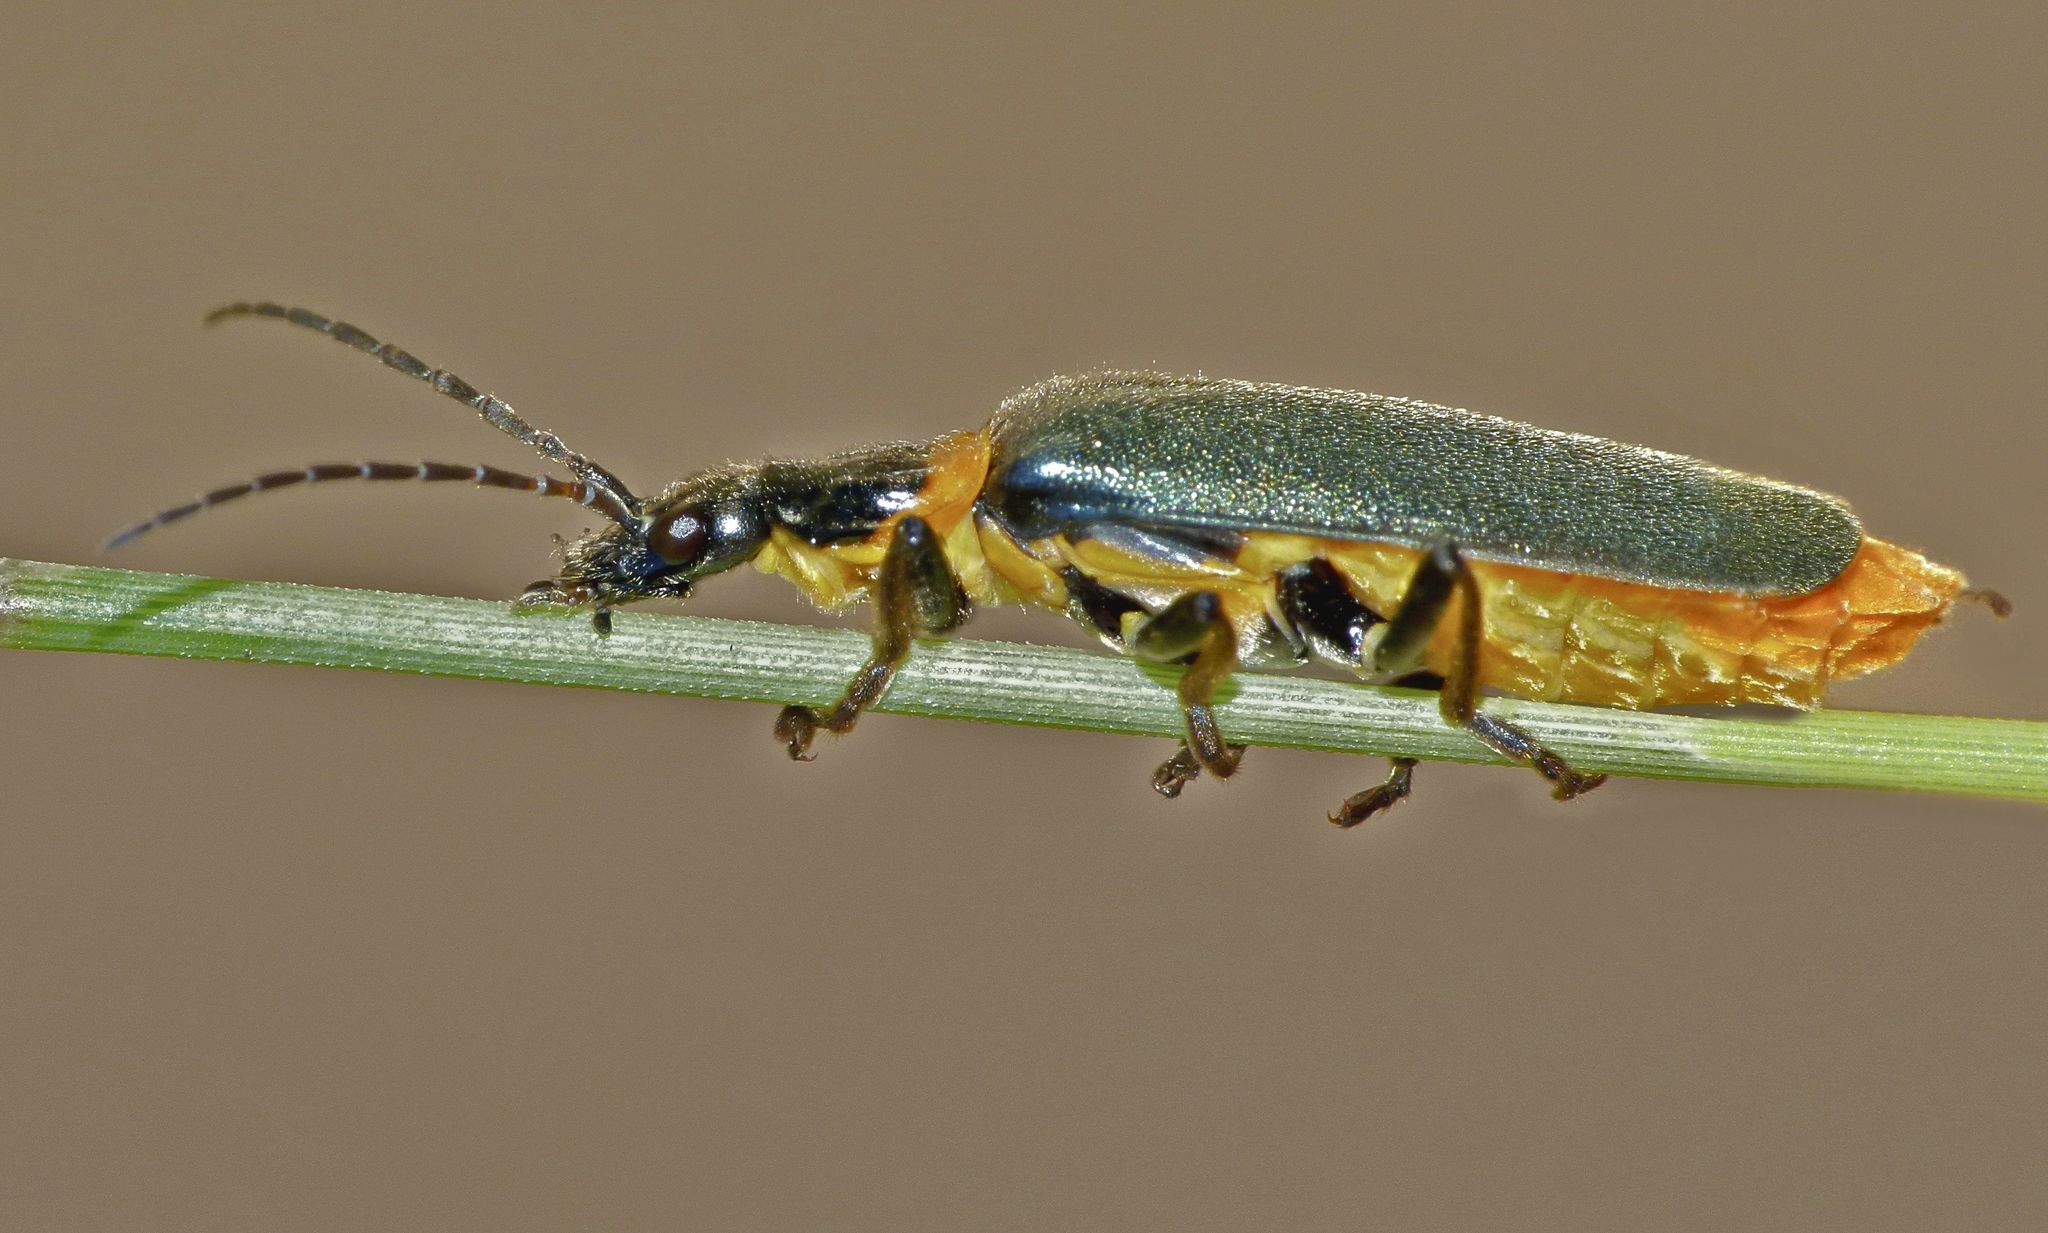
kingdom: Animalia
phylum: Arthropoda
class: Insecta
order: Coleoptera
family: Cantharidae
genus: Chauliognathus
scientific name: Chauliognathus
